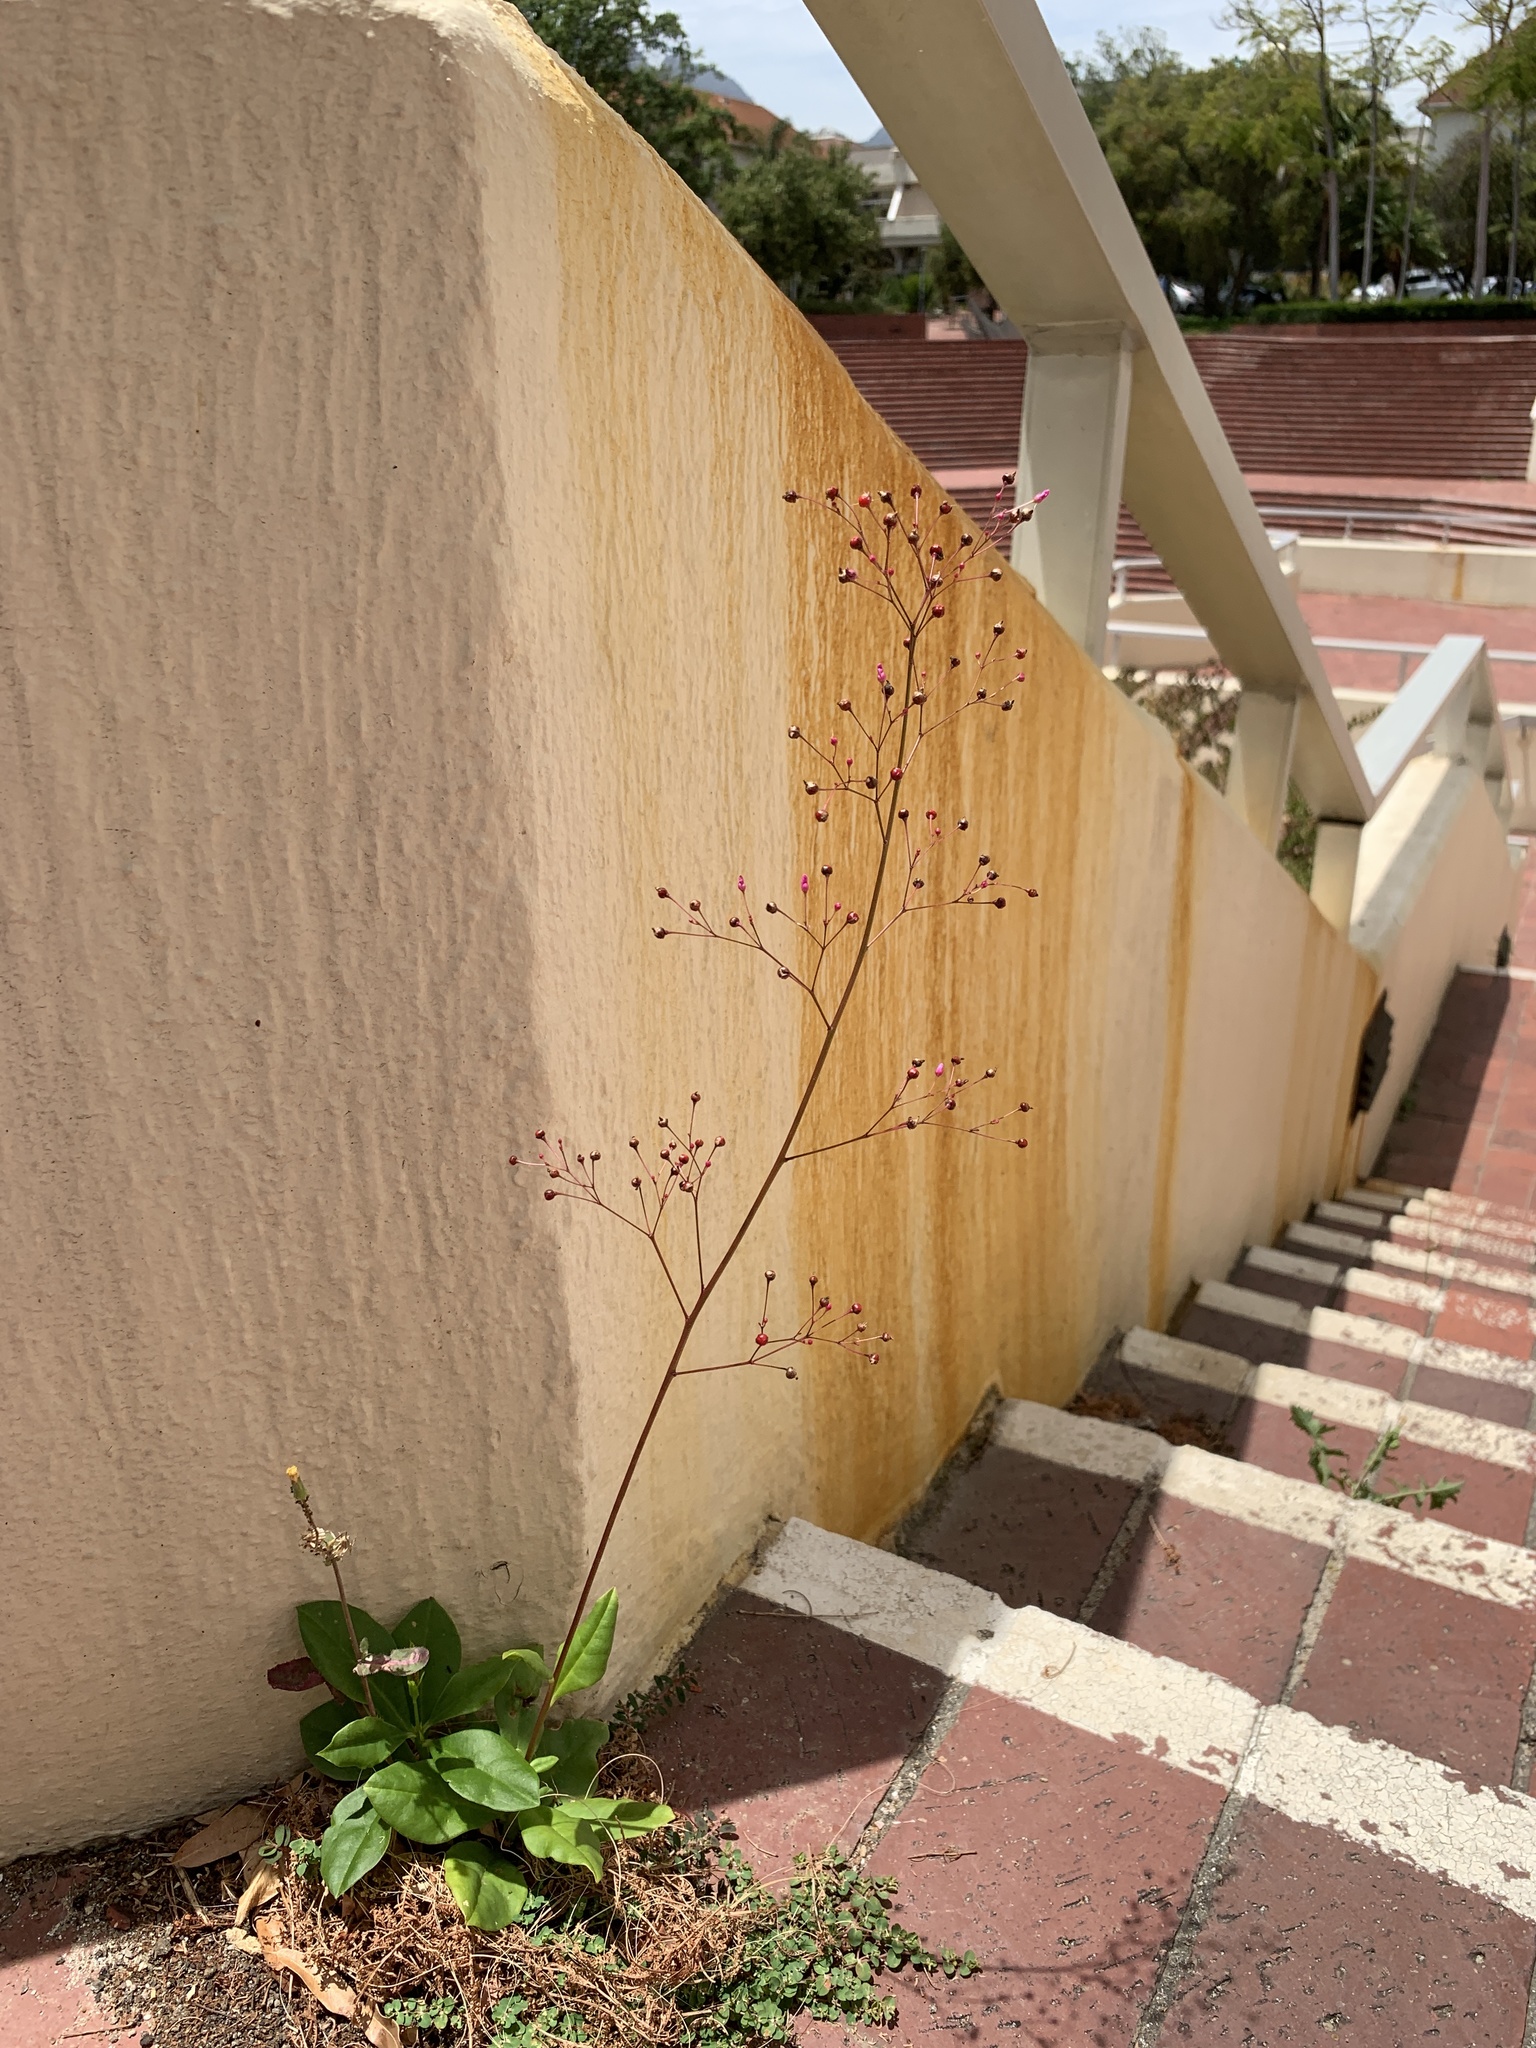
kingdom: Plantae
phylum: Tracheophyta
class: Magnoliopsida
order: Caryophyllales
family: Talinaceae
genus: Talinum
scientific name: Talinum paniculatum
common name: Jewels of opar
